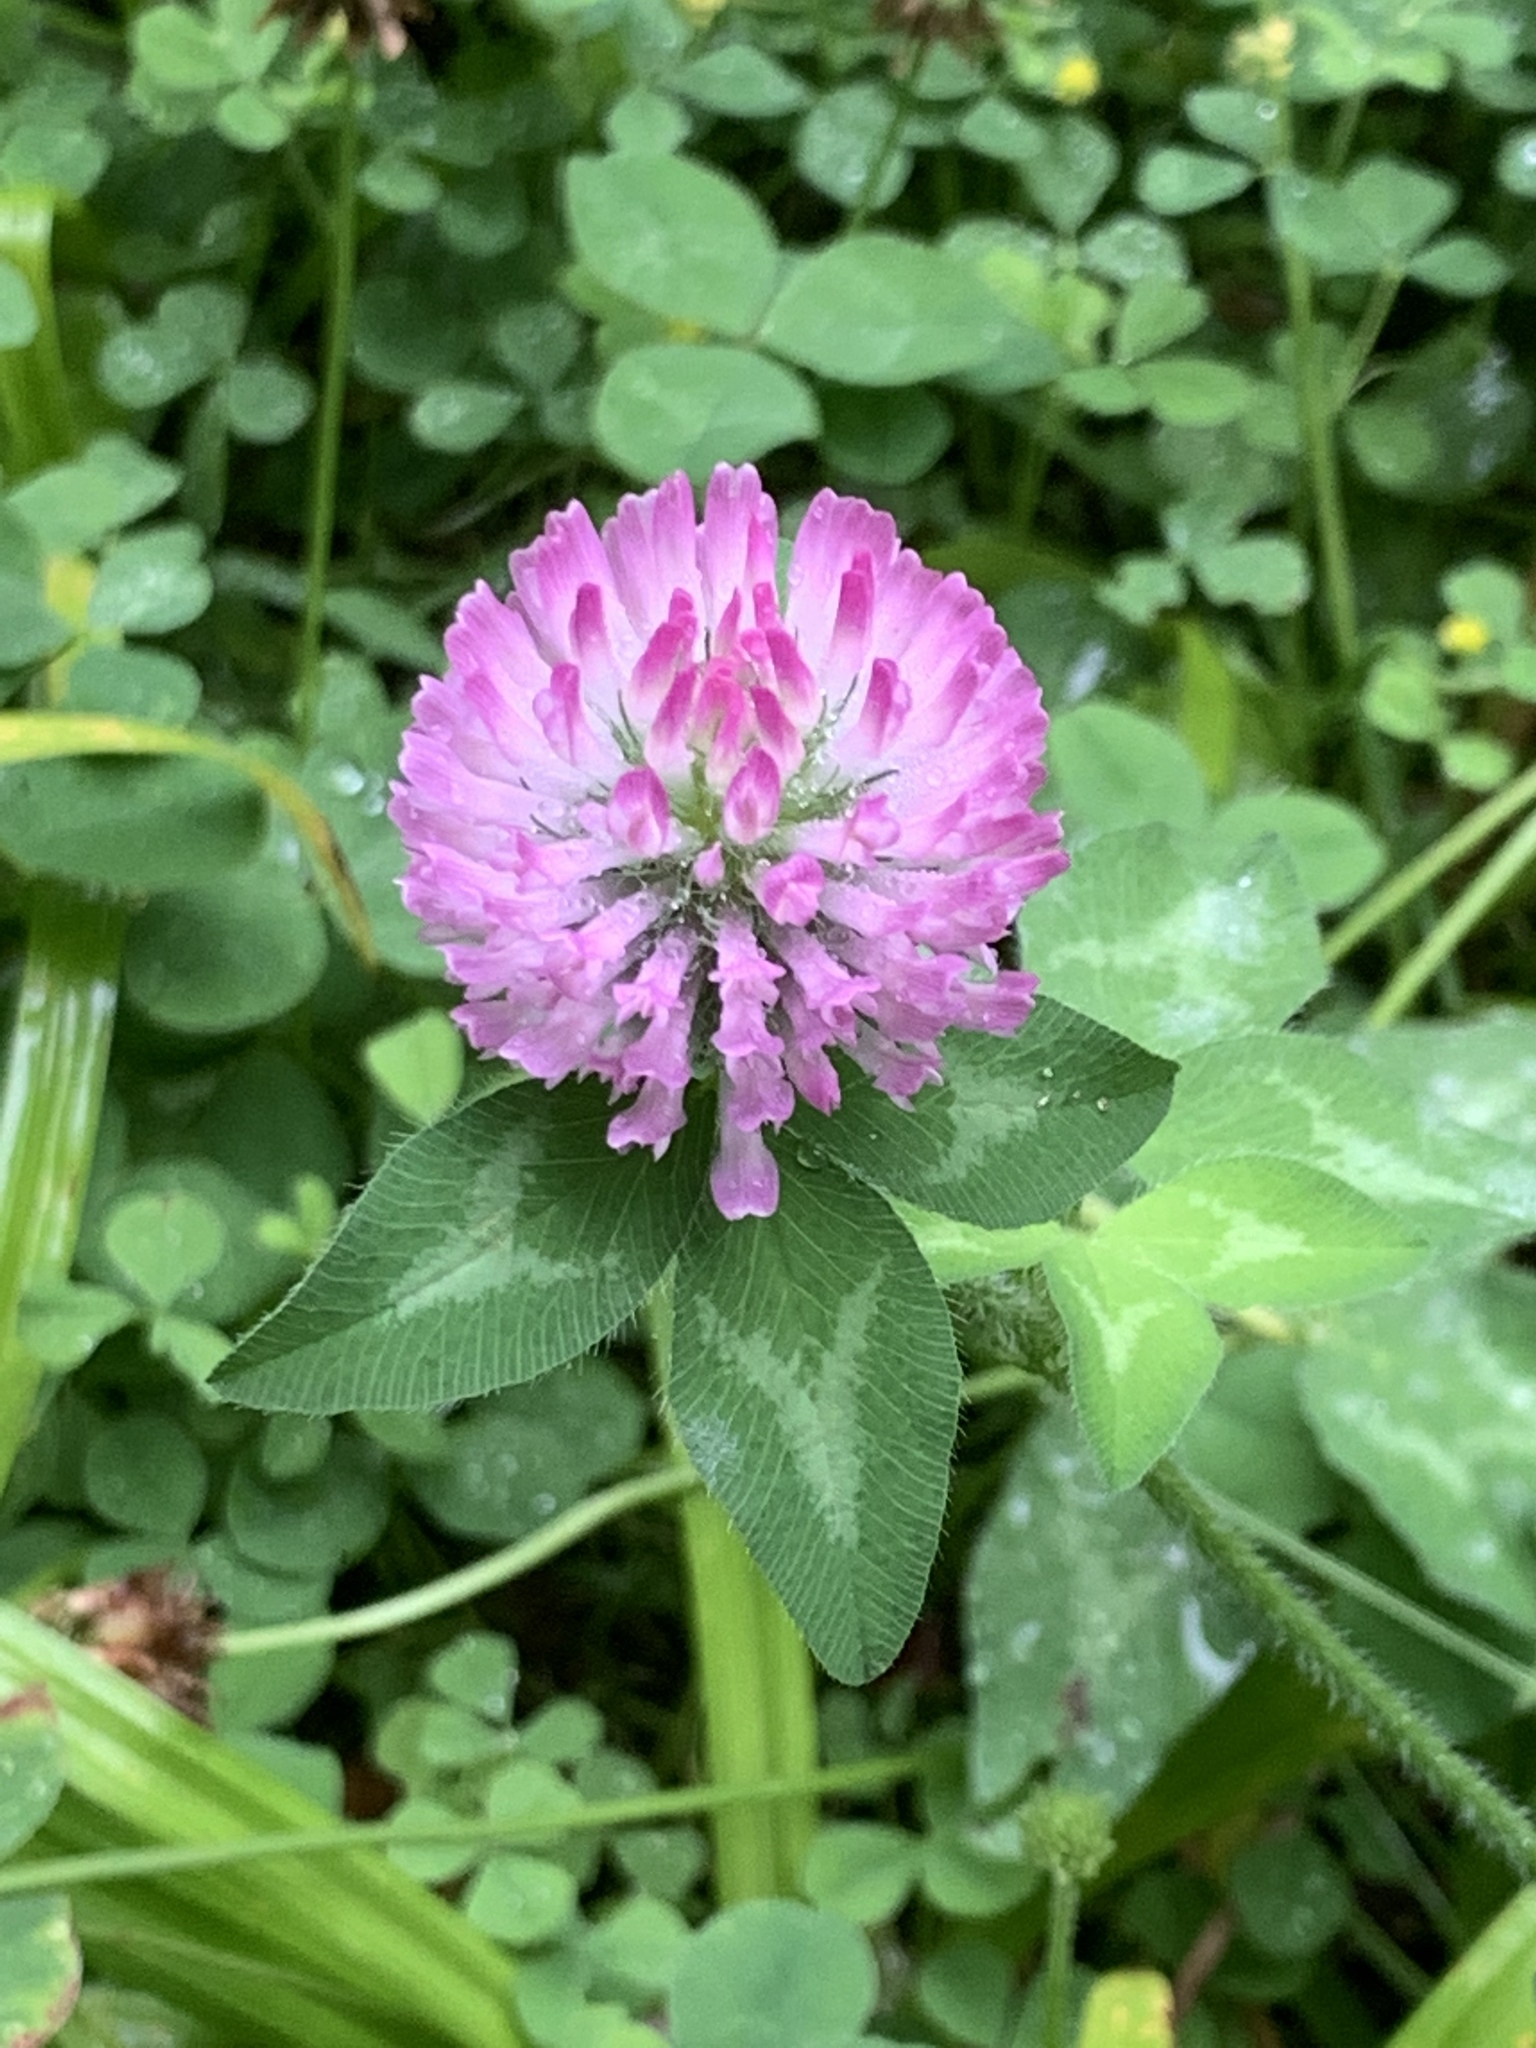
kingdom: Plantae
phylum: Tracheophyta
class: Magnoliopsida
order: Fabales
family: Fabaceae
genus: Trifolium
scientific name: Trifolium pratense
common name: Red clover
